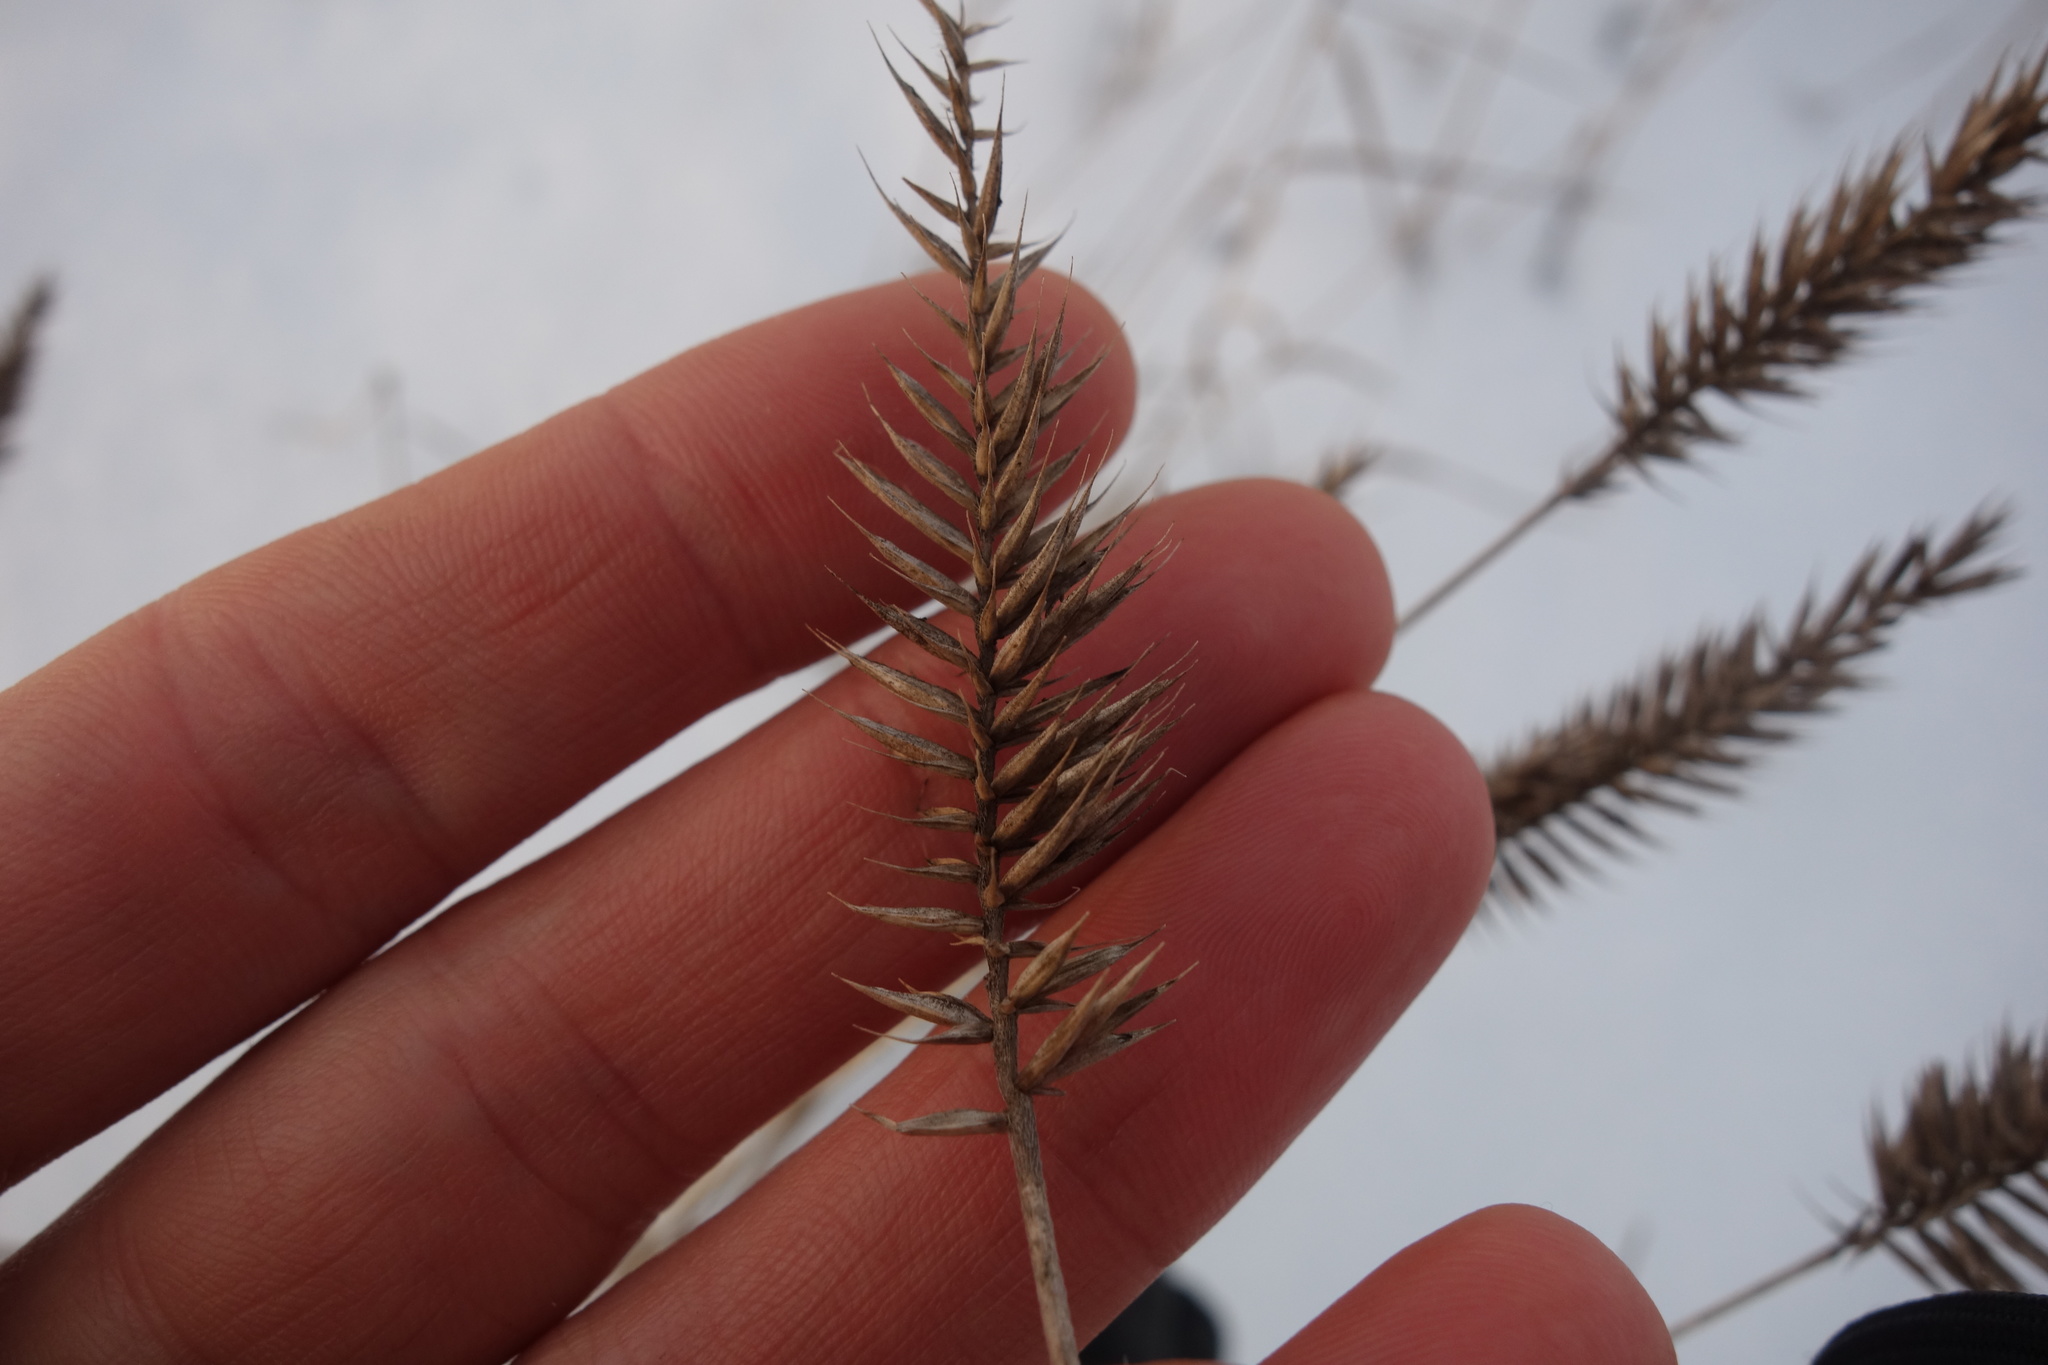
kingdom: Plantae
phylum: Tracheophyta
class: Liliopsida
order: Poales
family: Poaceae
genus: Agropyron
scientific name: Agropyron cristatum
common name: Crested wheatgrass
